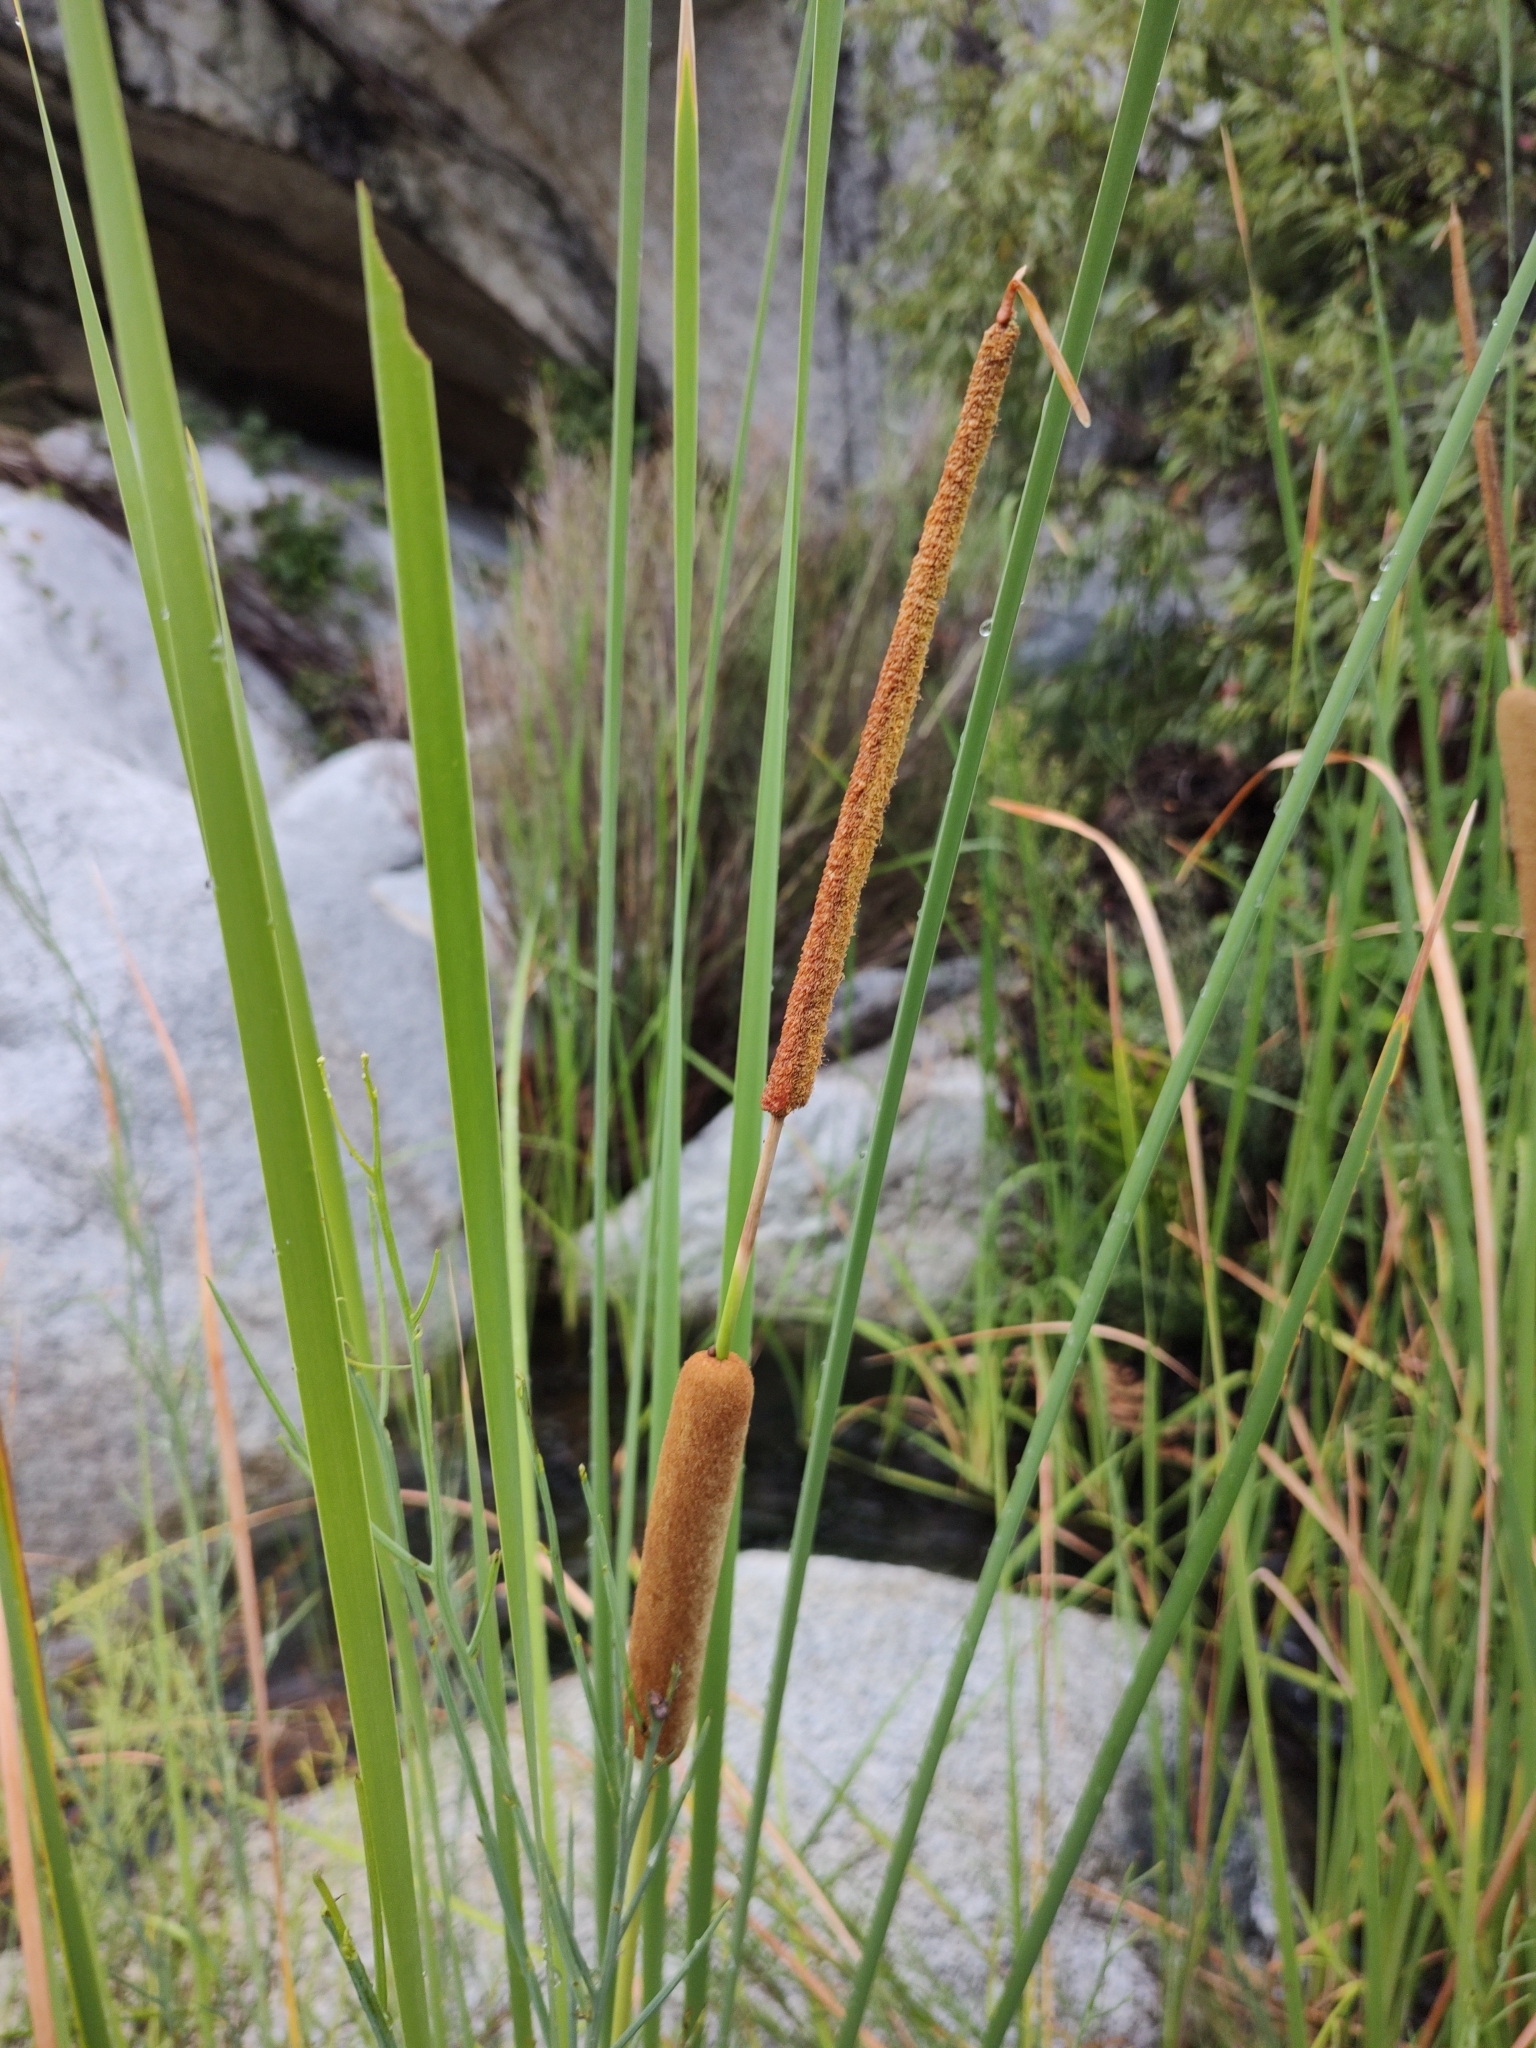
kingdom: Plantae
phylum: Tracheophyta
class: Liliopsida
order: Poales
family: Typhaceae
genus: Typha
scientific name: Typha domingensis
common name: Southern cattail
